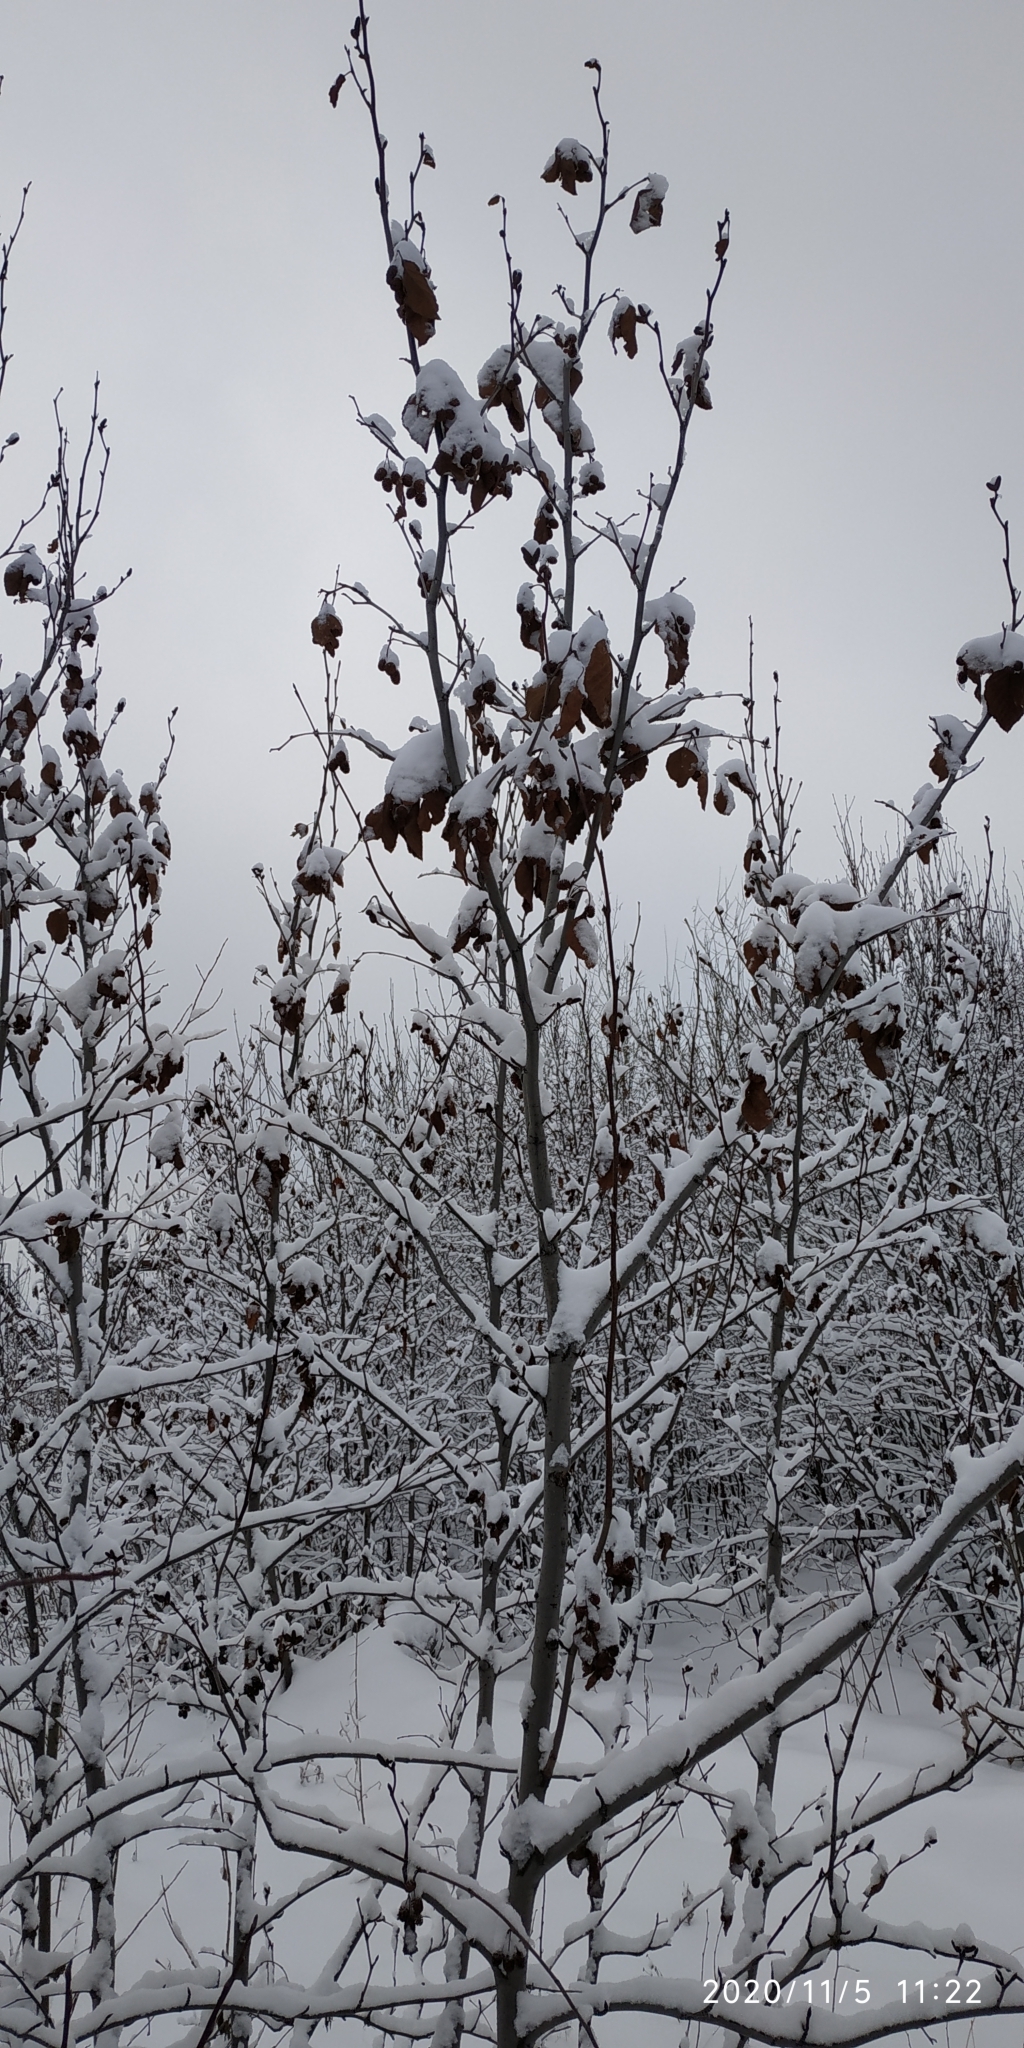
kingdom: Plantae
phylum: Tracheophyta
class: Magnoliopsida
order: Fagales
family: Betulaceae
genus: Alnus
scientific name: Alnus alnobetula
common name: Green alder
